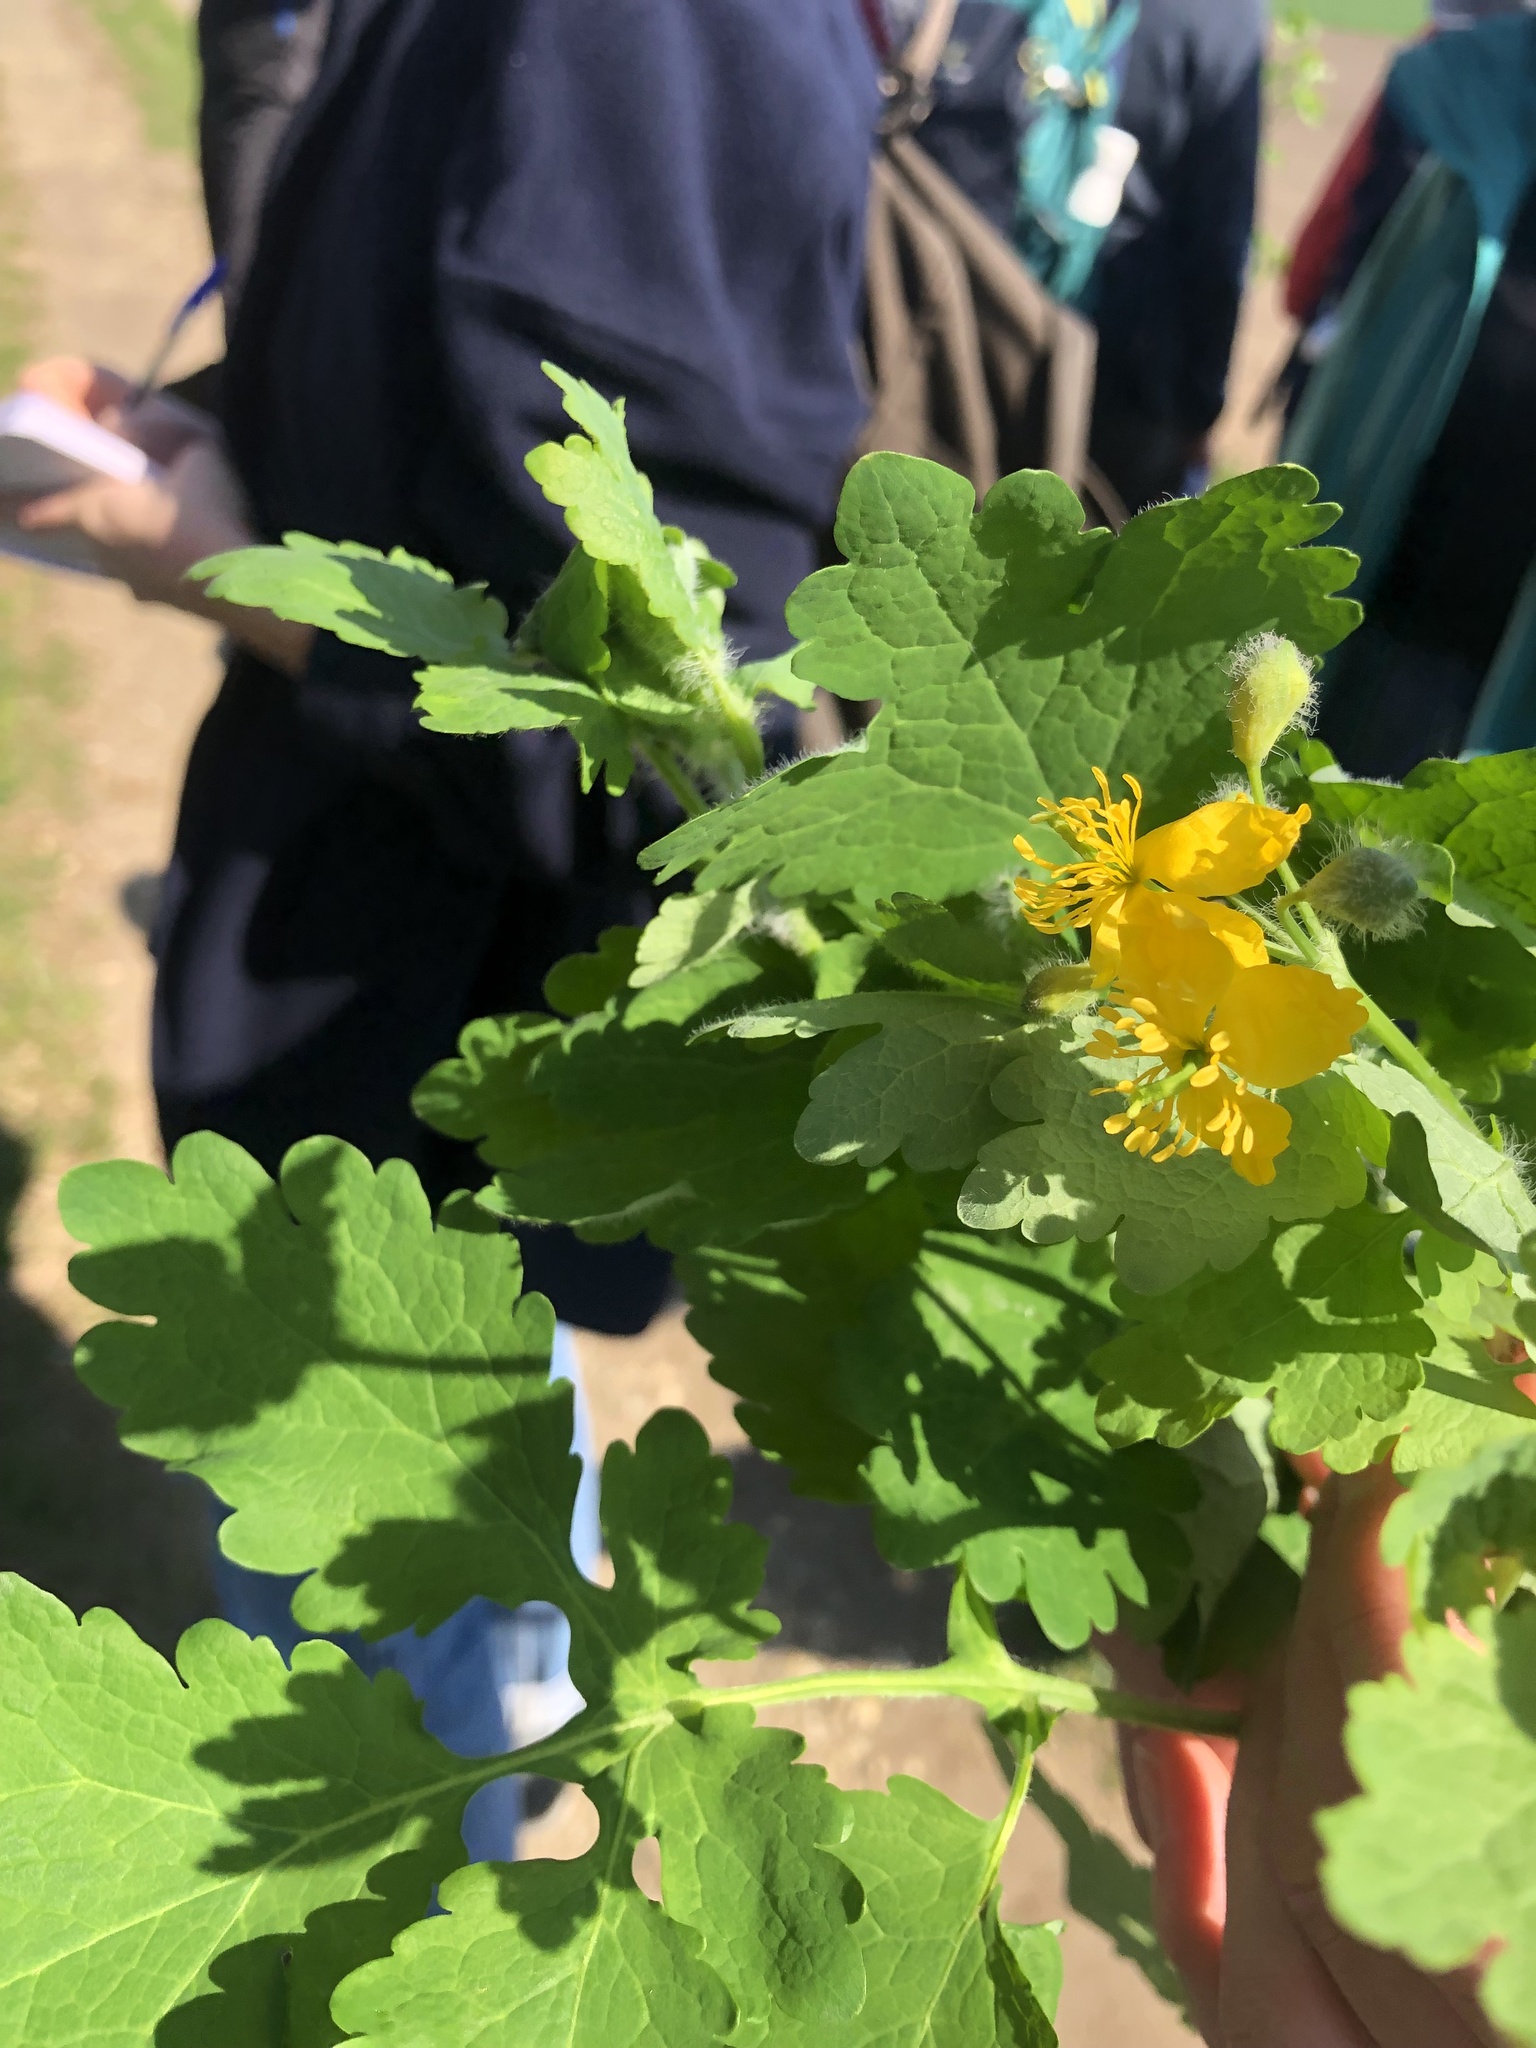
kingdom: Plantae
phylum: Tracheophyta
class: Magnoliopsida
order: Ranunculales
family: Papaveraceae
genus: Chelidonium
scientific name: Chelidonium majus
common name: Greater celandine
